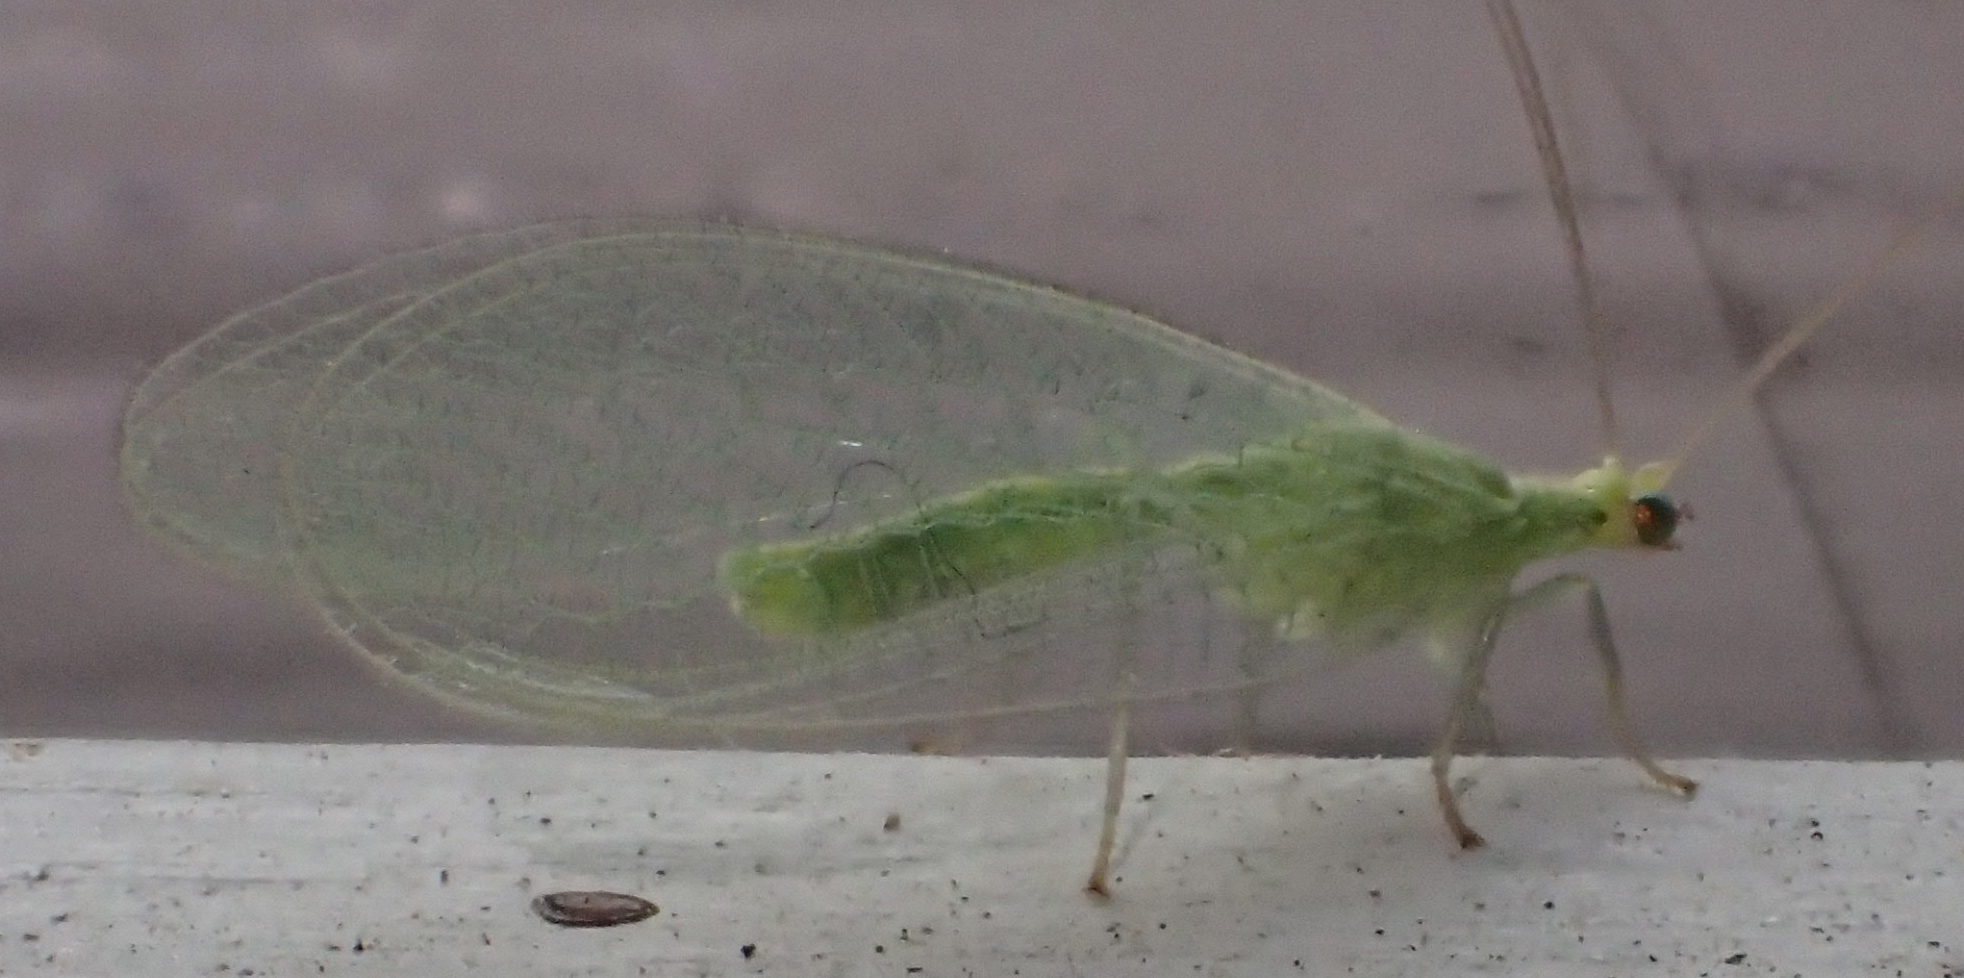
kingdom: Animalia
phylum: Arthropoda
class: Insecta
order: Neuroptera
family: Chrysopidae
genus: Chrysoperla
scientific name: Chrysoperla
